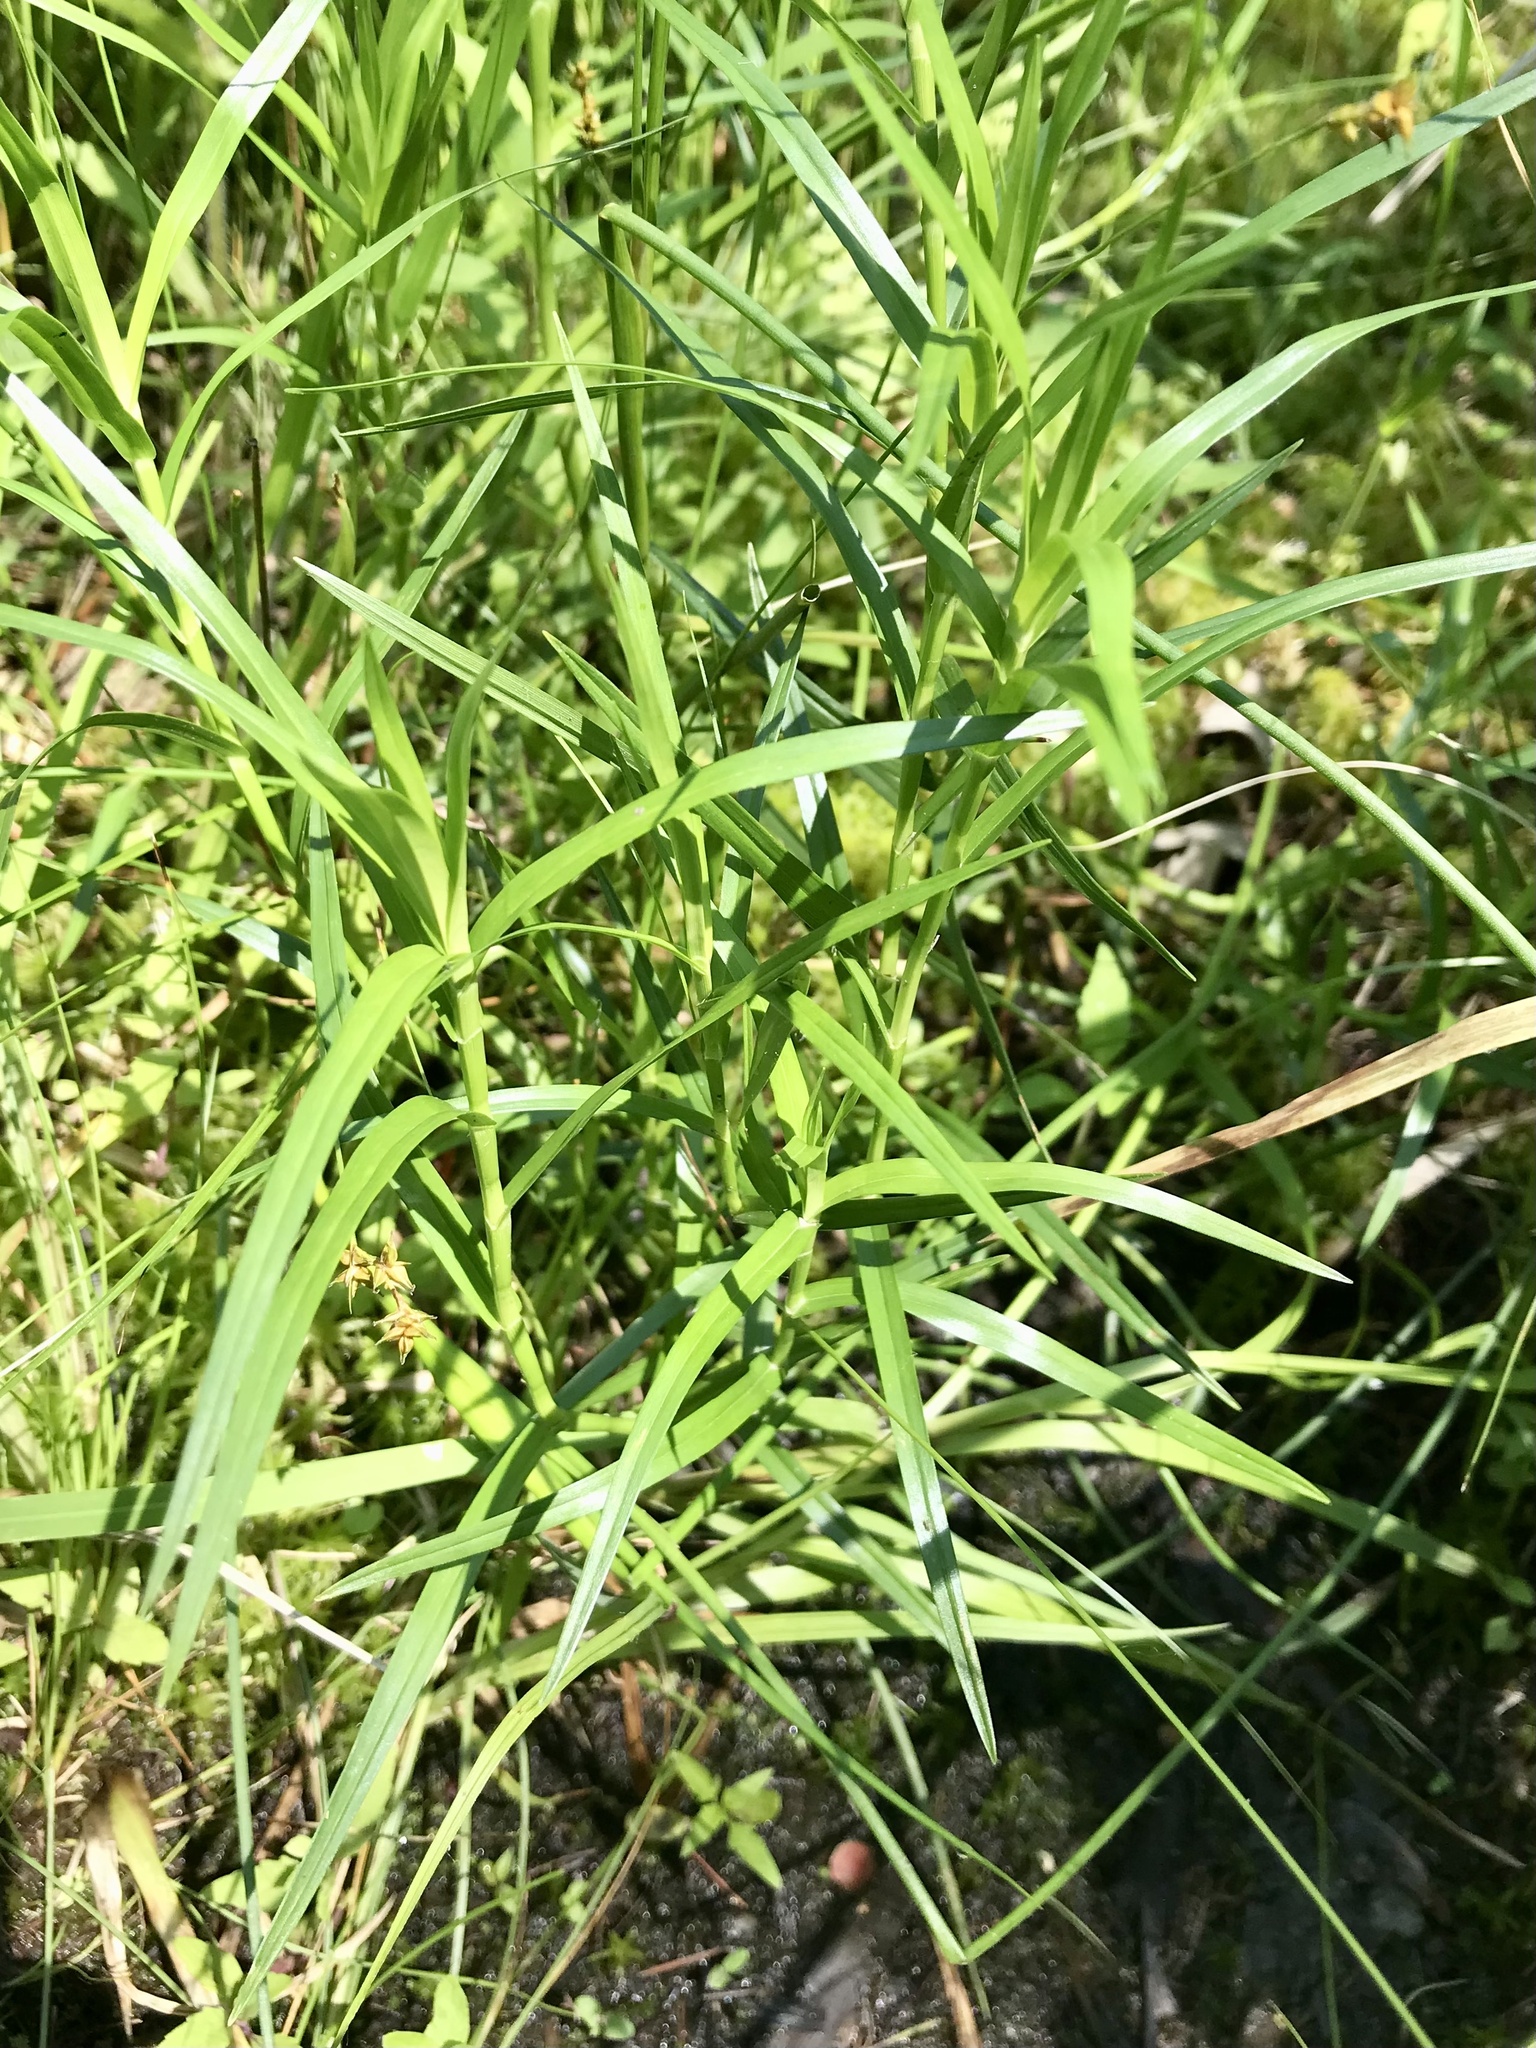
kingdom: Plantae
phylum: Tracheophyta
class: Liliopsida
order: Poales
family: Cyperaceae
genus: Dulichium
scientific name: Dulichium arundinaceum
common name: Three-way sedge
